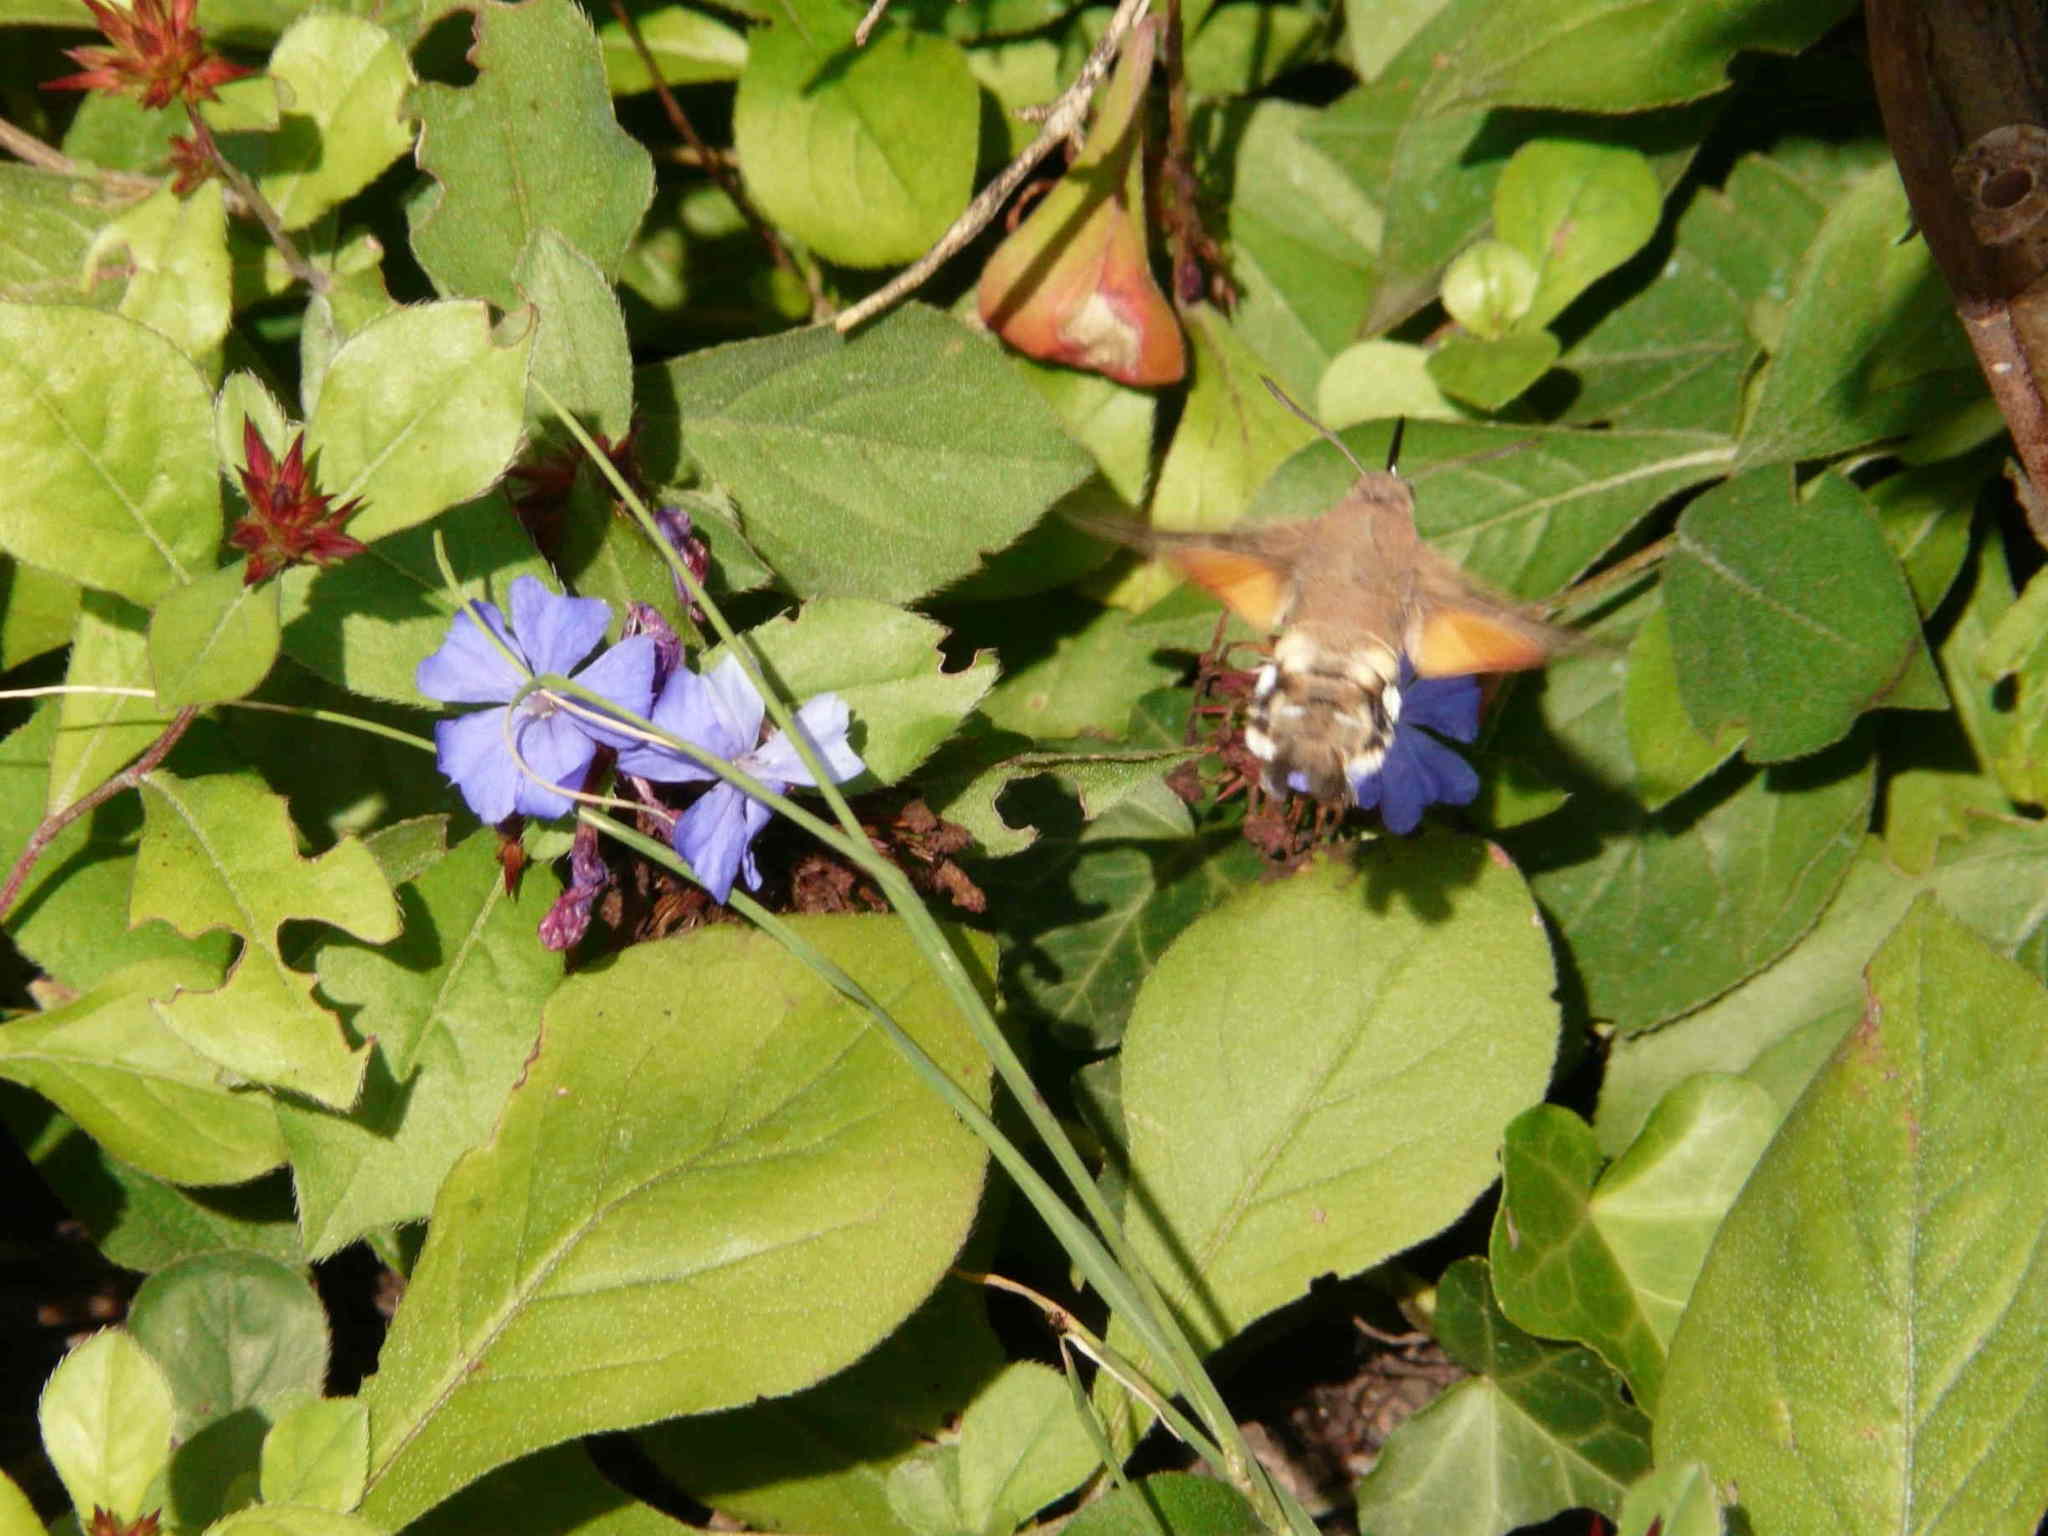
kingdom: Animalia
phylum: Arthropoda
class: Insecta
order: Lepidoptera
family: Sphingidae
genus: Macroglossum
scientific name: Macroglossum stellatarum
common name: Humming-bird hawk-moth
